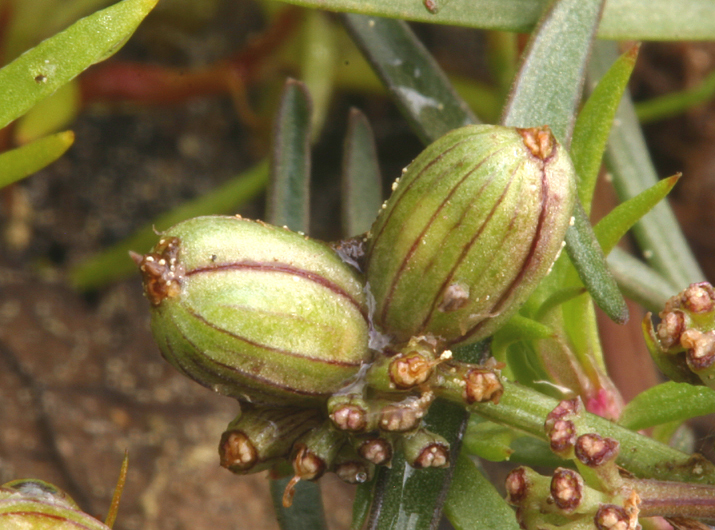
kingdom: Plantae
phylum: Tracheophyta
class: Magnoliopsida
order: Apiales
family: Apiaceae
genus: Lomatium
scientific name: Lomatium fusiformis
